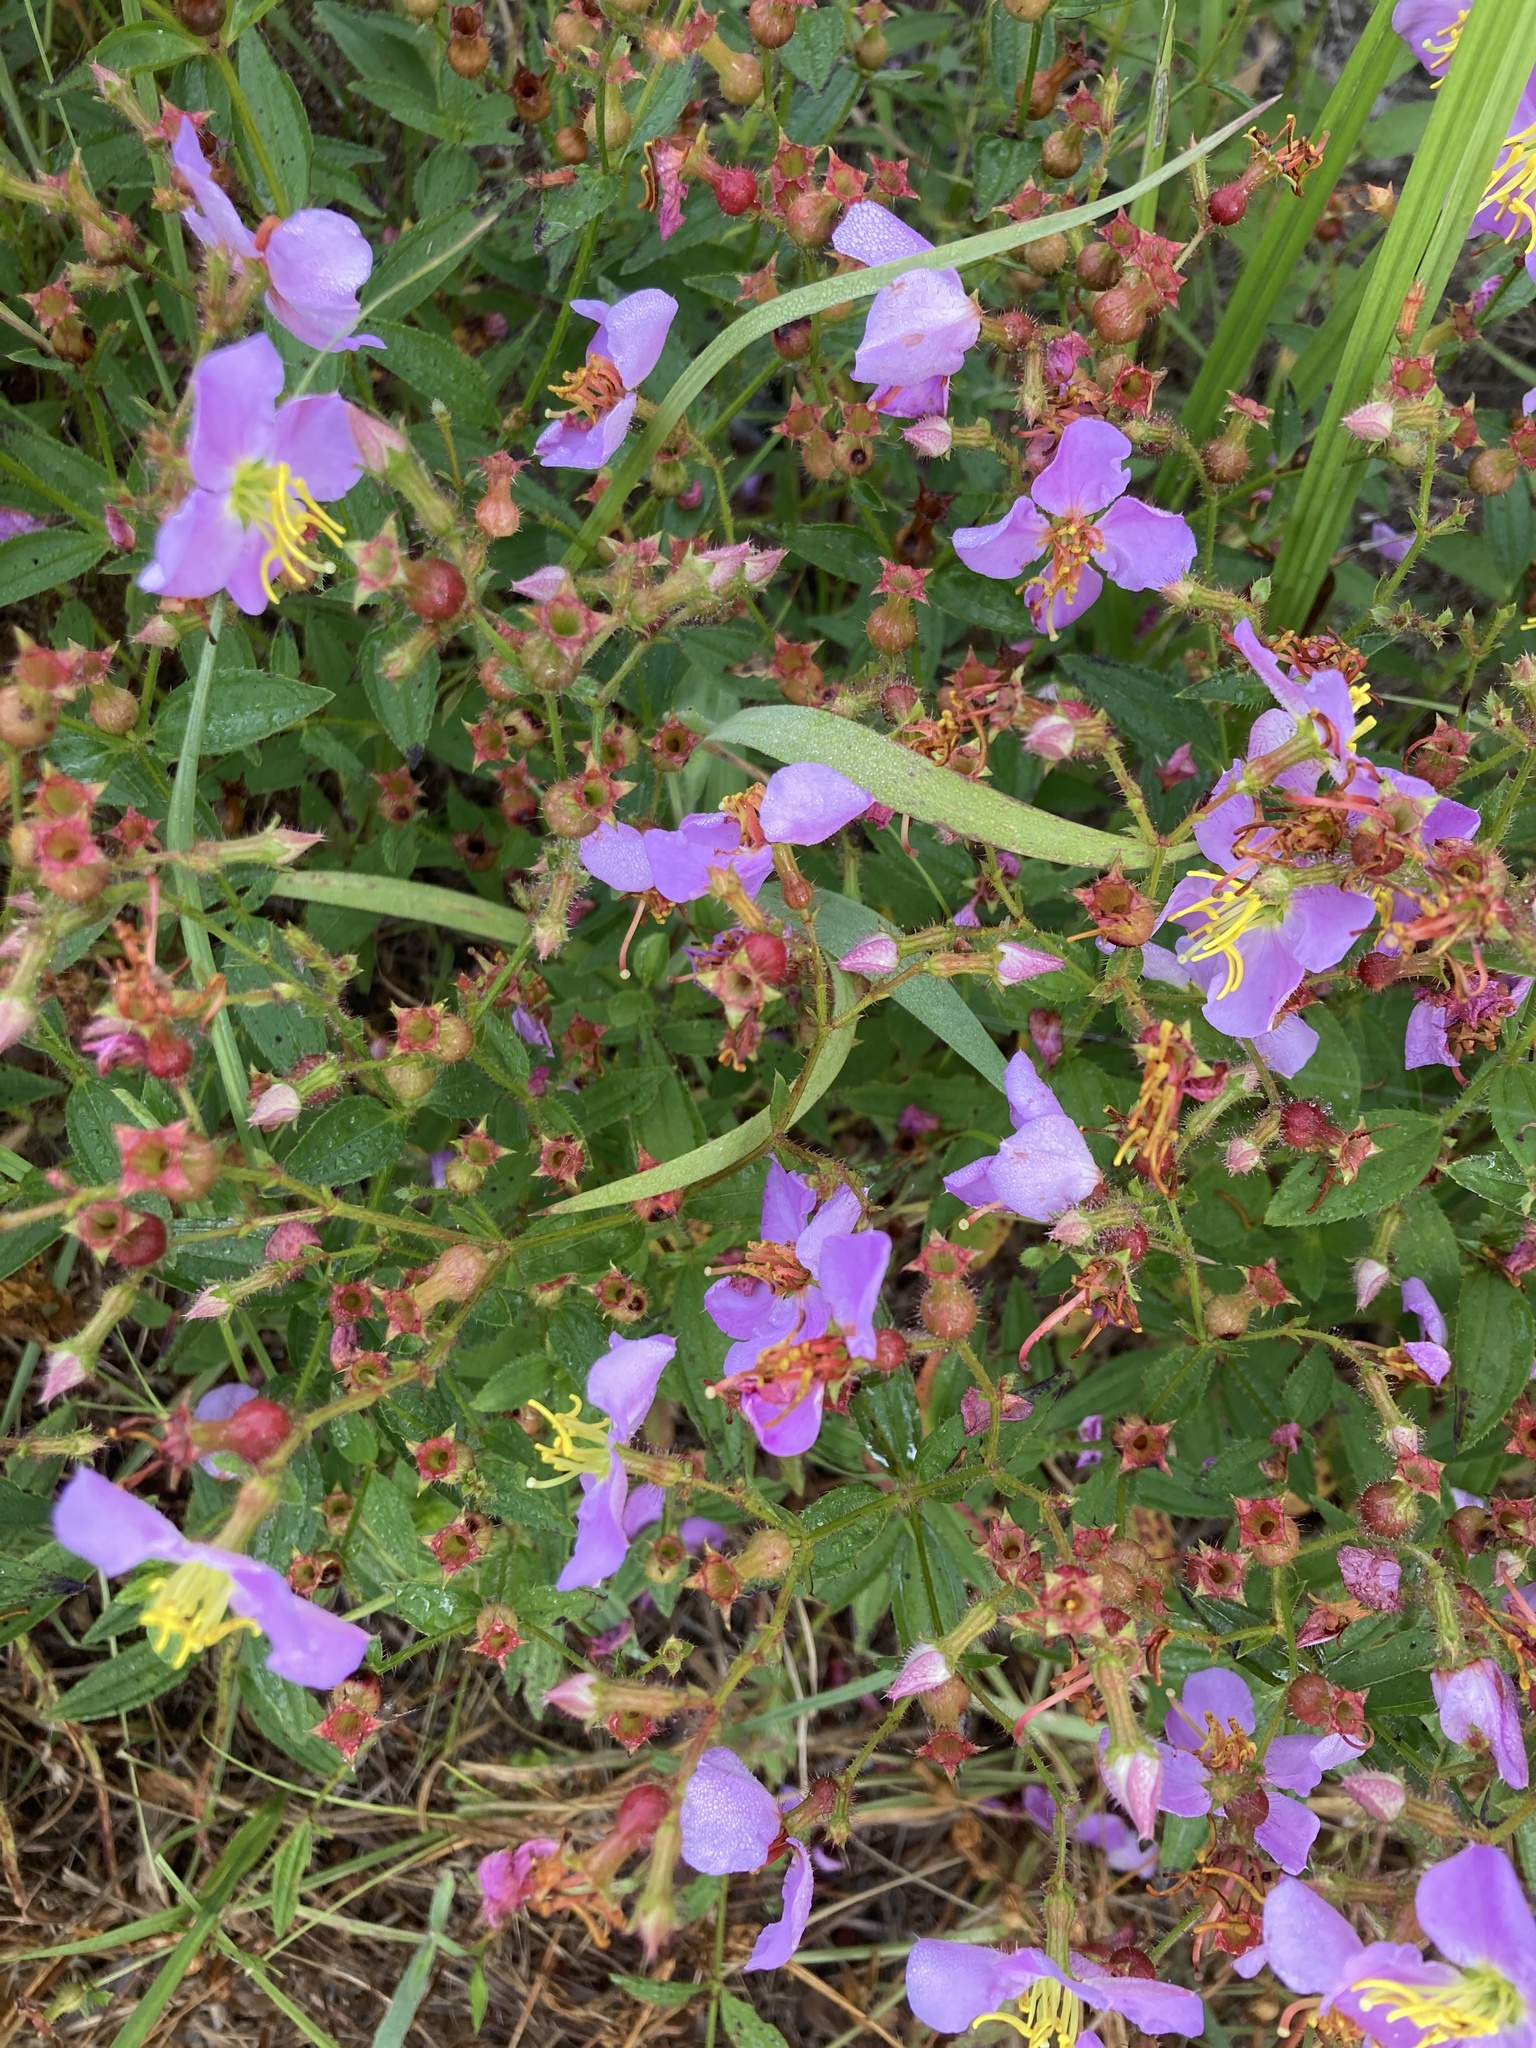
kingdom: Plantae
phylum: Tracheophyta
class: Magnoliopsida
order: Myrtales
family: Melastomataceae
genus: Rhexia
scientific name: Rhexia virginica
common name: Common meadow beauty
